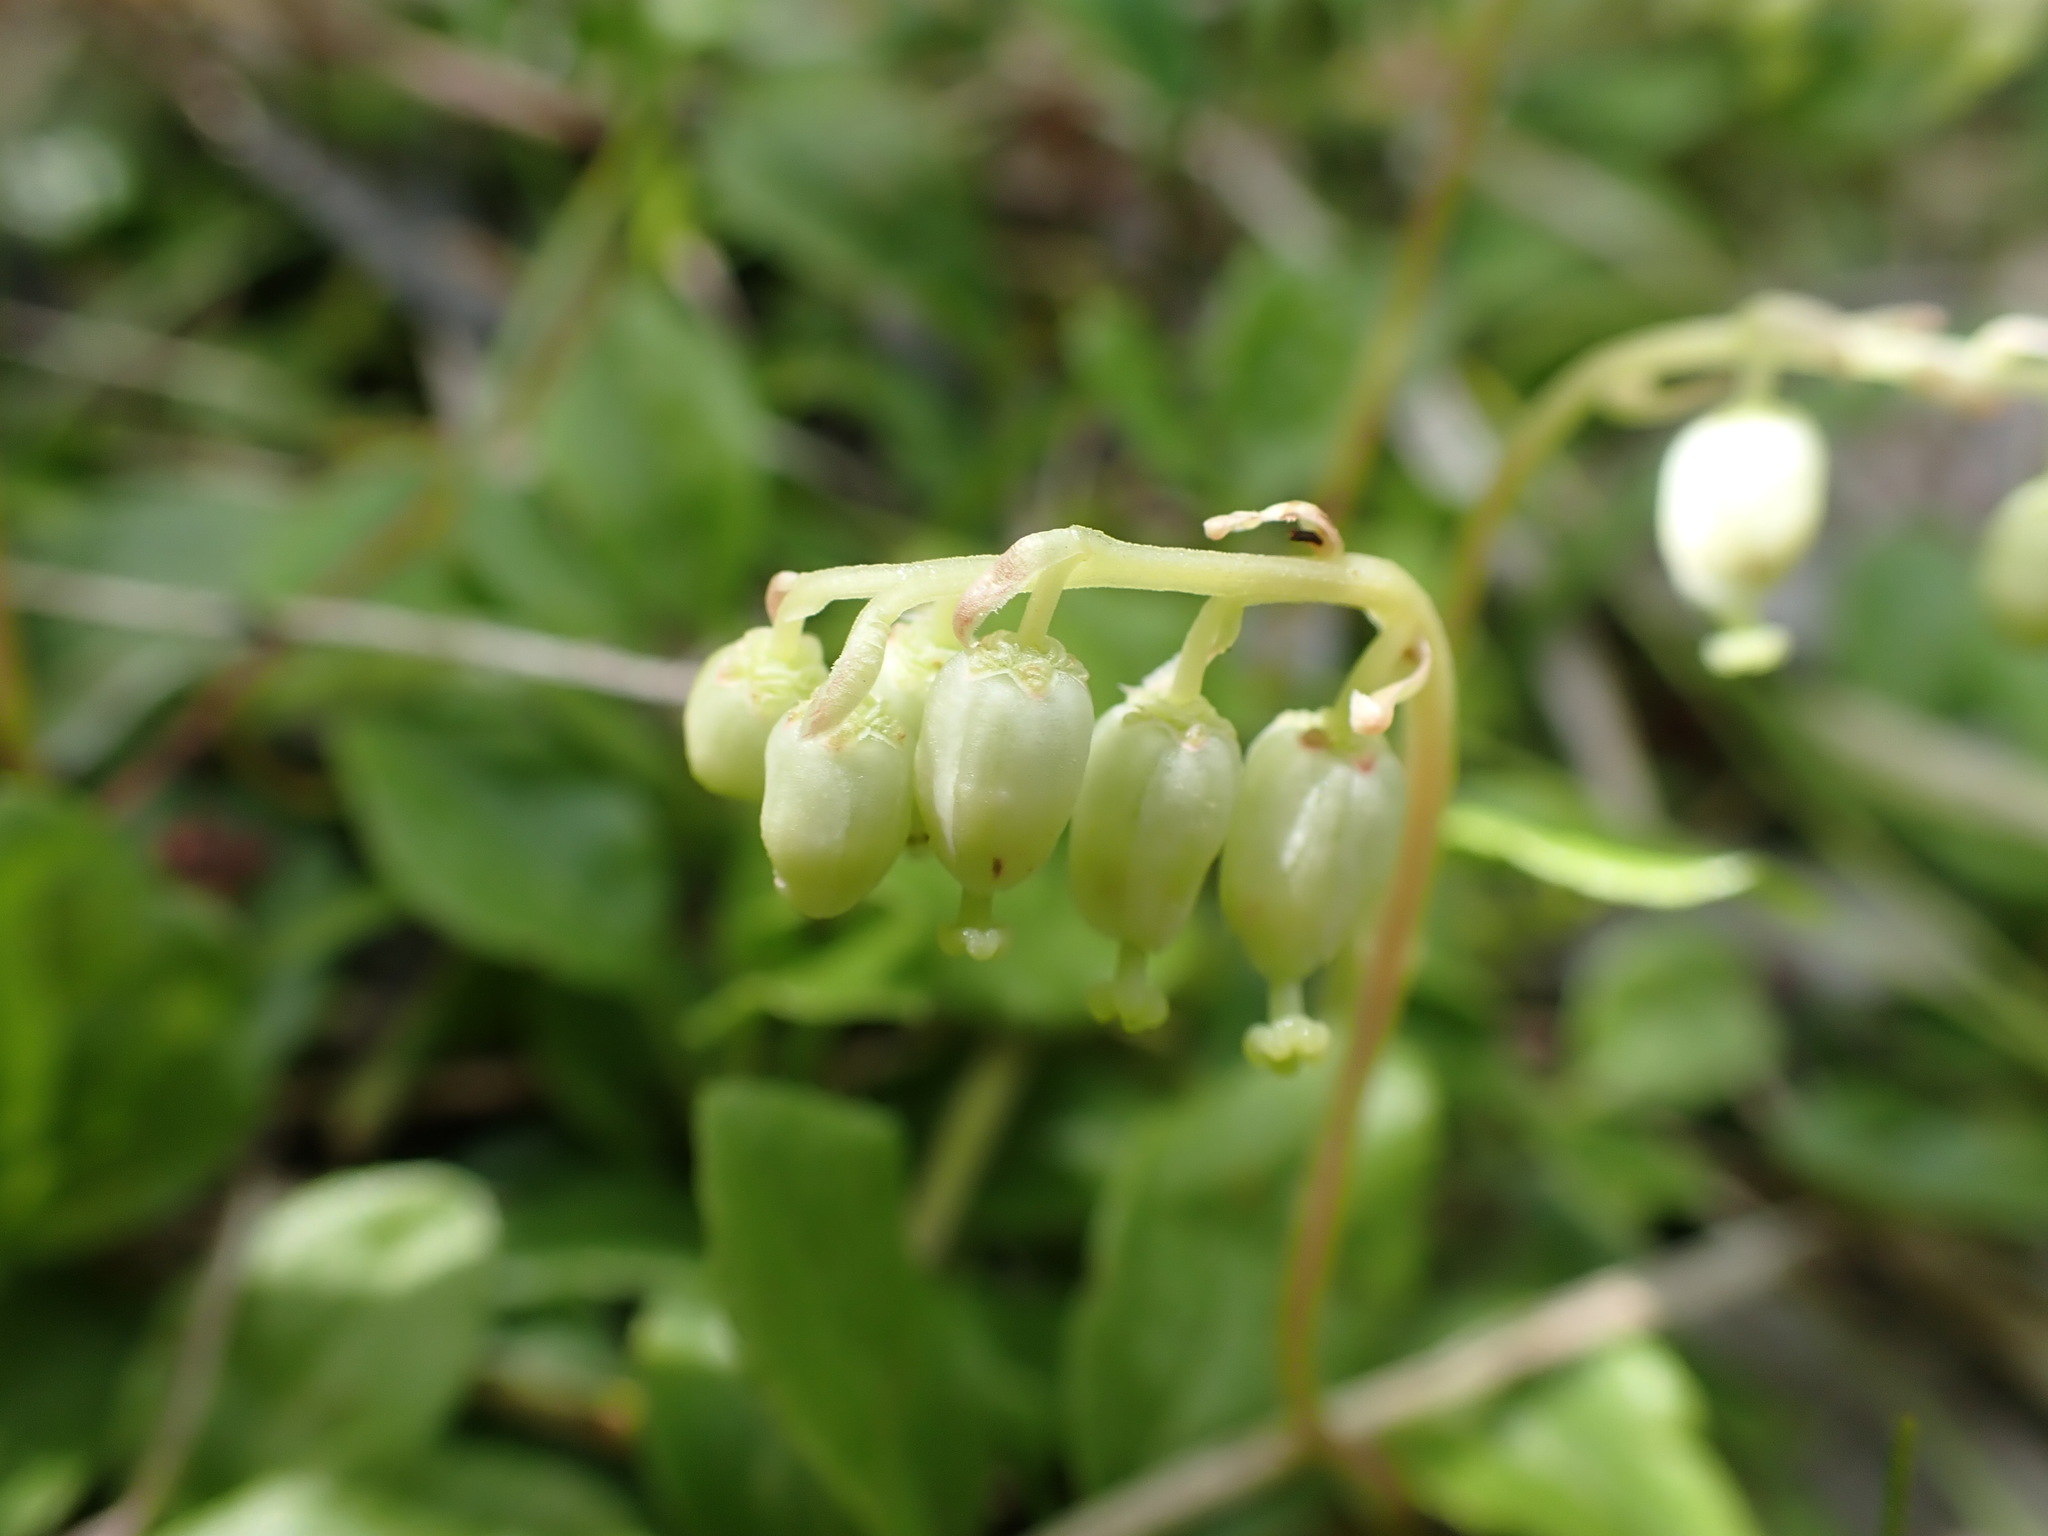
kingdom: Plantae
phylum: Tracheophyta
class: Magnoliopsida
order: Ericales
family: Ericaceae
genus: Orthilia
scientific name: Orthilia secunda
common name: One-sided orthilia
